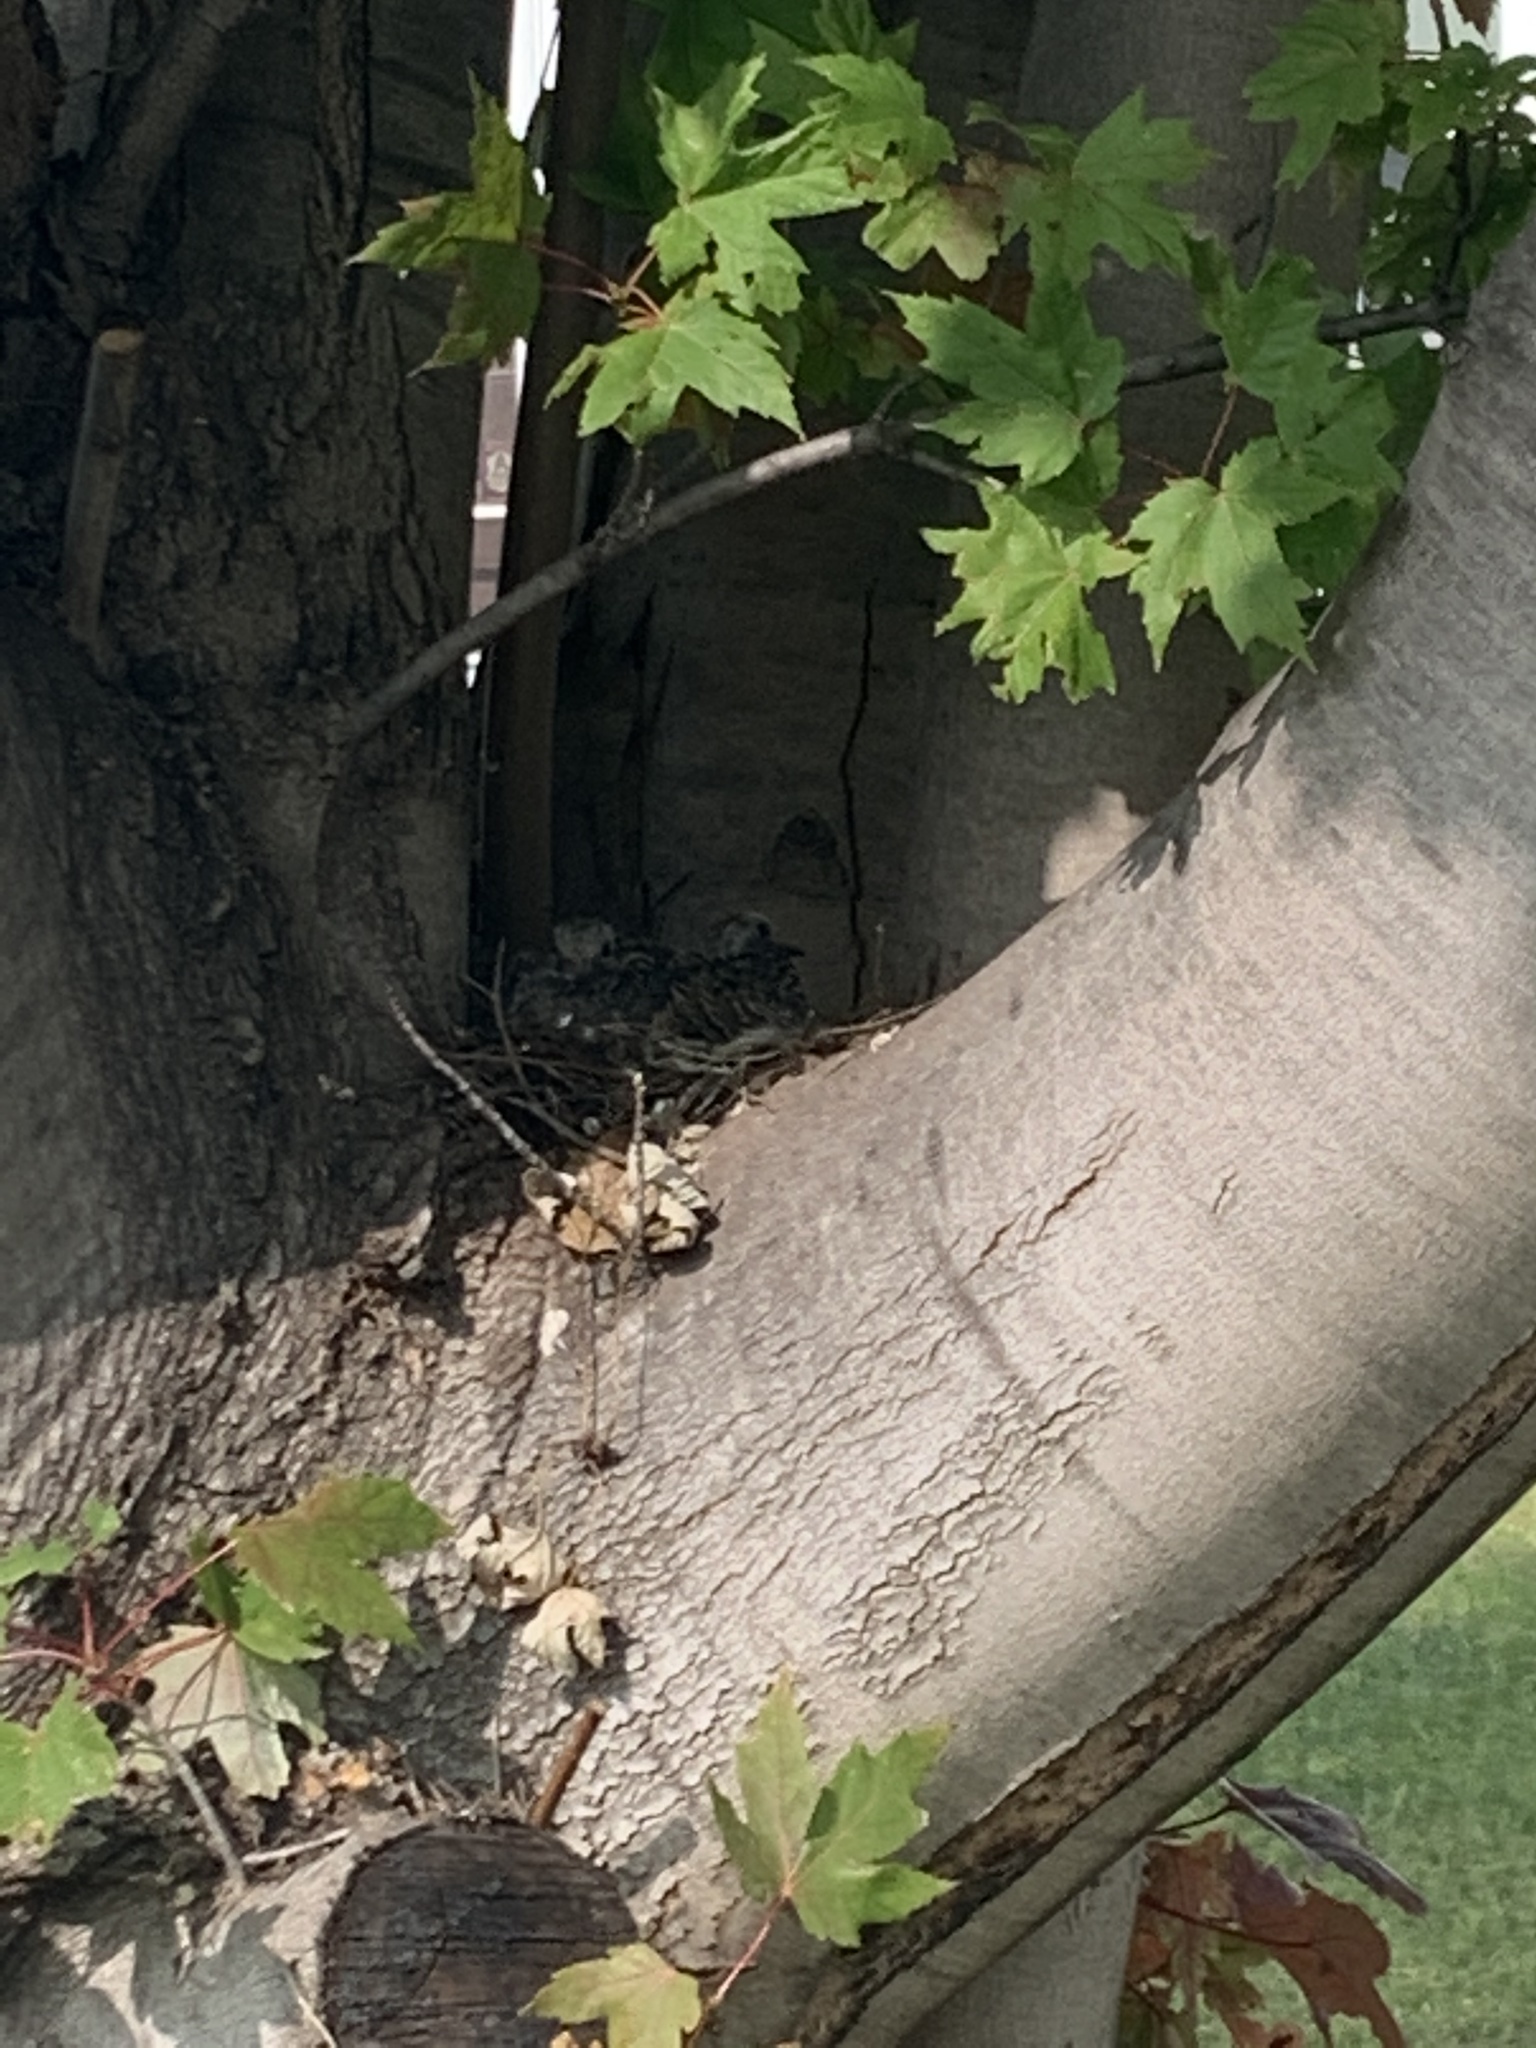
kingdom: Animalia
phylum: Chordata
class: Aves
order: Columbiformes
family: Columbidae
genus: Zenaida
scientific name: Zenaida macroura
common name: Mourning dove
